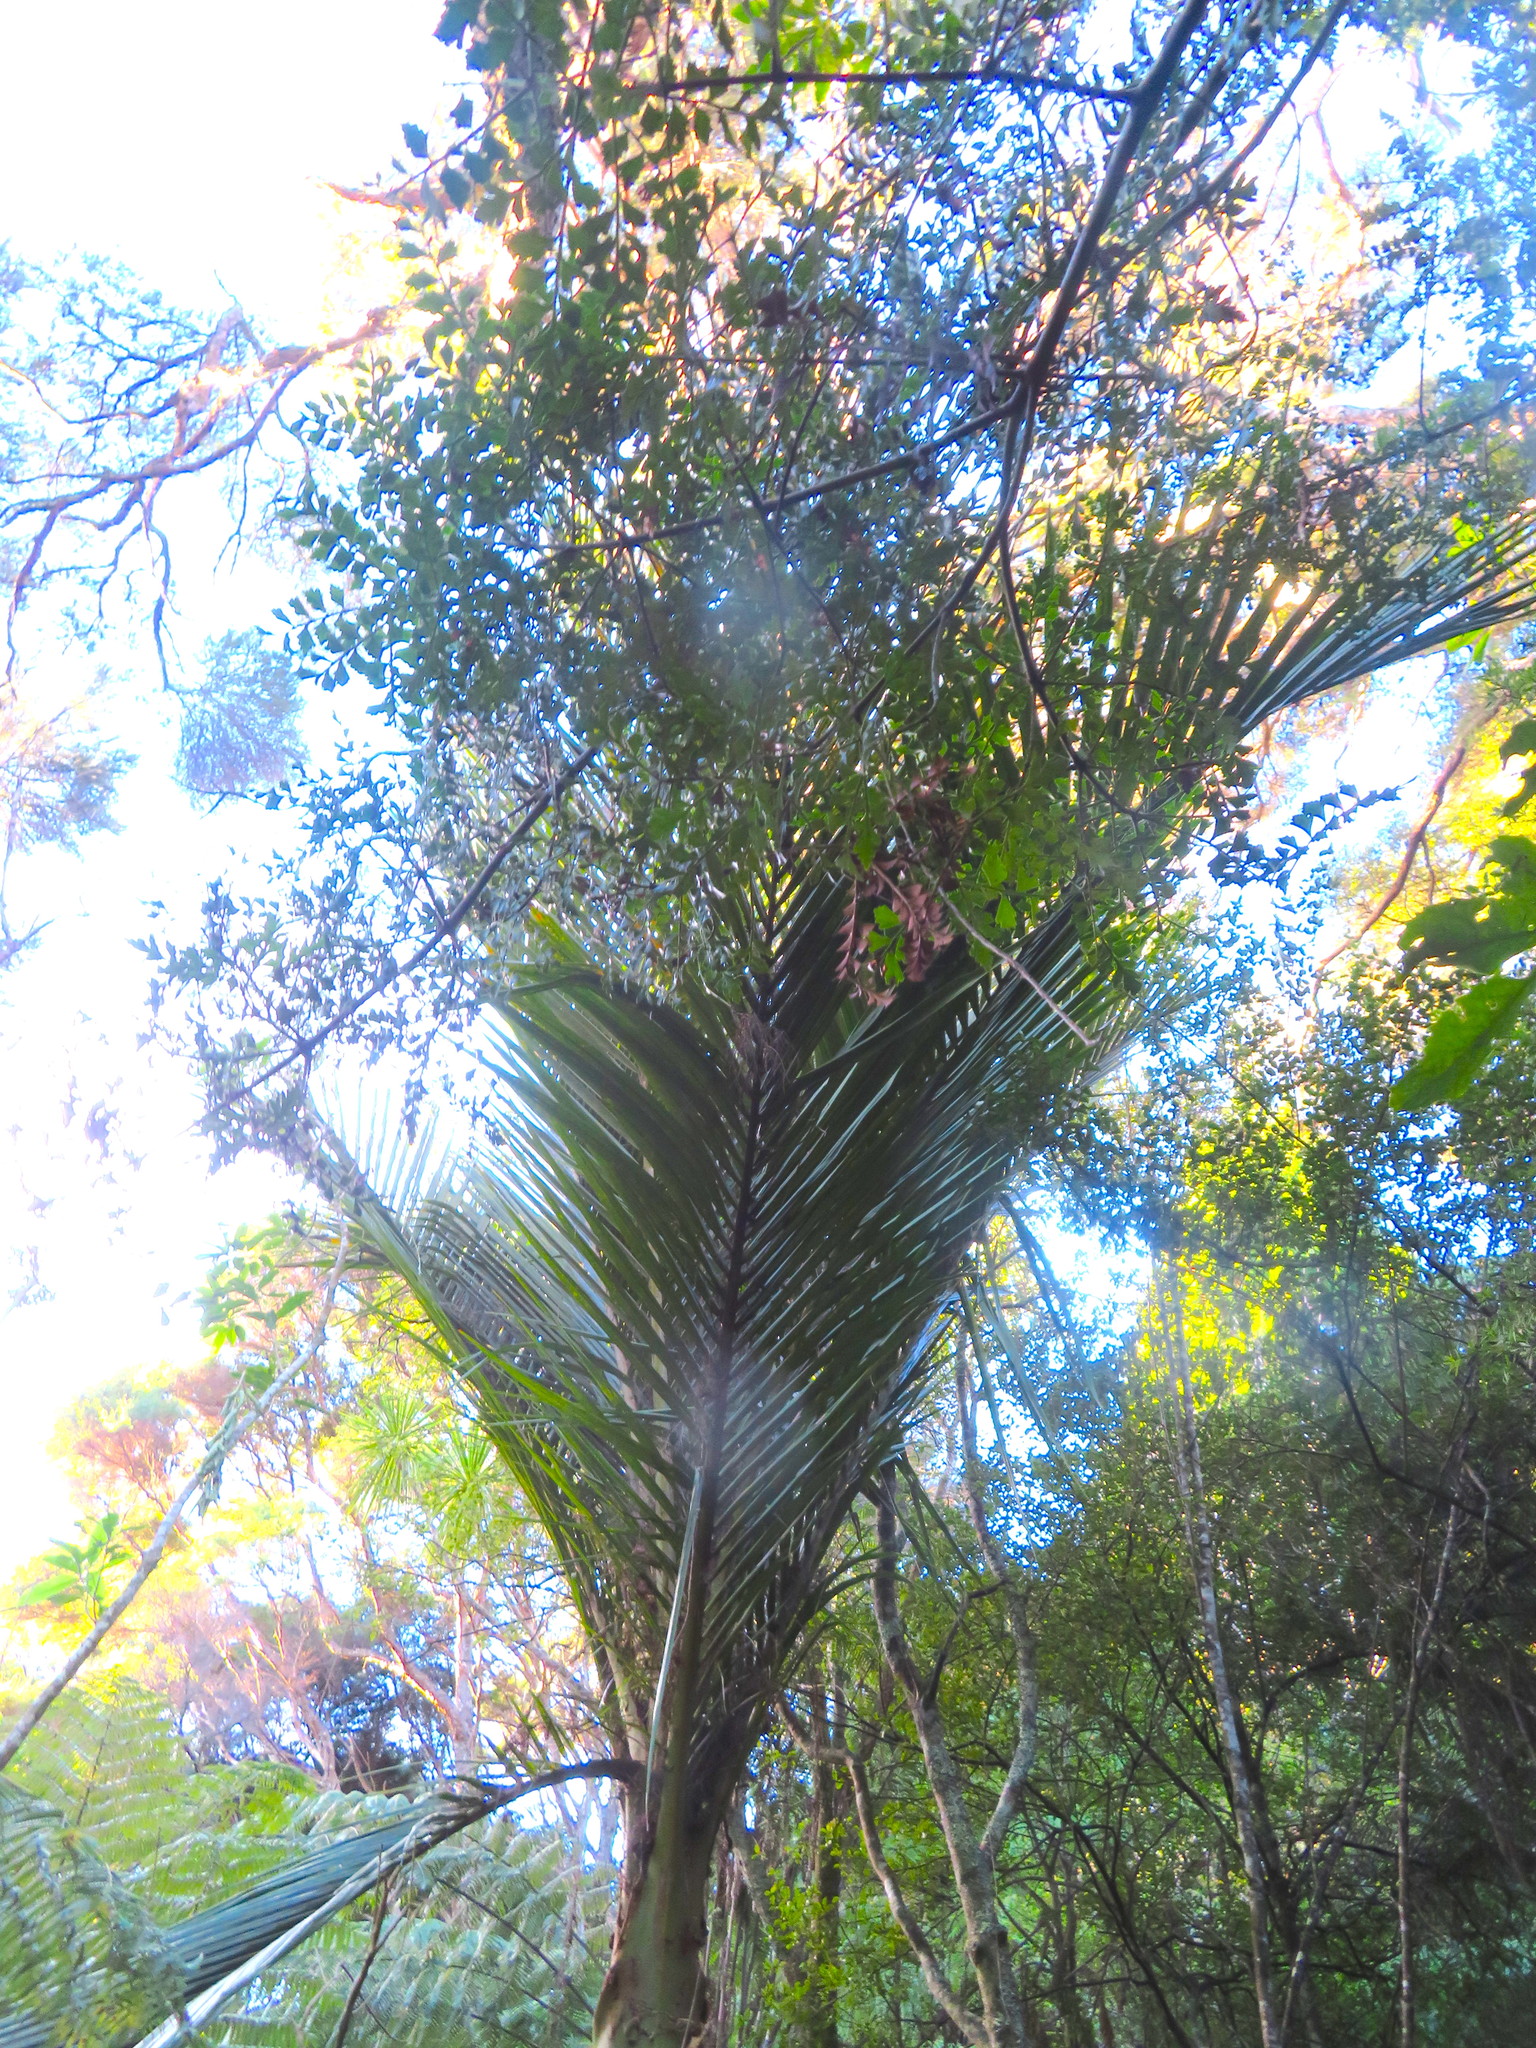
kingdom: Plantae
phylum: Tracheophyta
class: Liliopsida
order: Arecales
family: Arecaceae
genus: Rhopalostylis
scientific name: Rhopalostylis sapida
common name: Feather-duster palm
